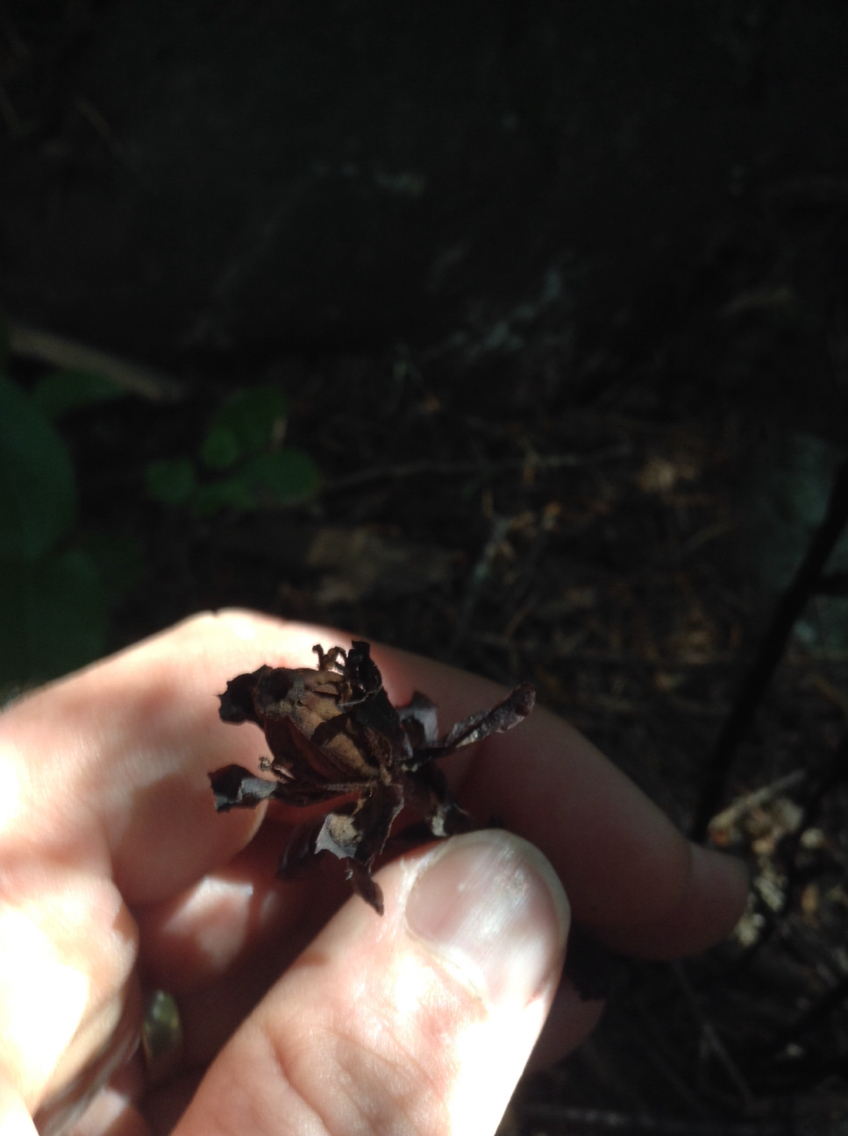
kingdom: Plantae
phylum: Tracheophyta
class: Magnoliopsida
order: Ericales
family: Ericaceae
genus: Monotropa
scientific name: Monotropa uniflora
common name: Convulsion root
